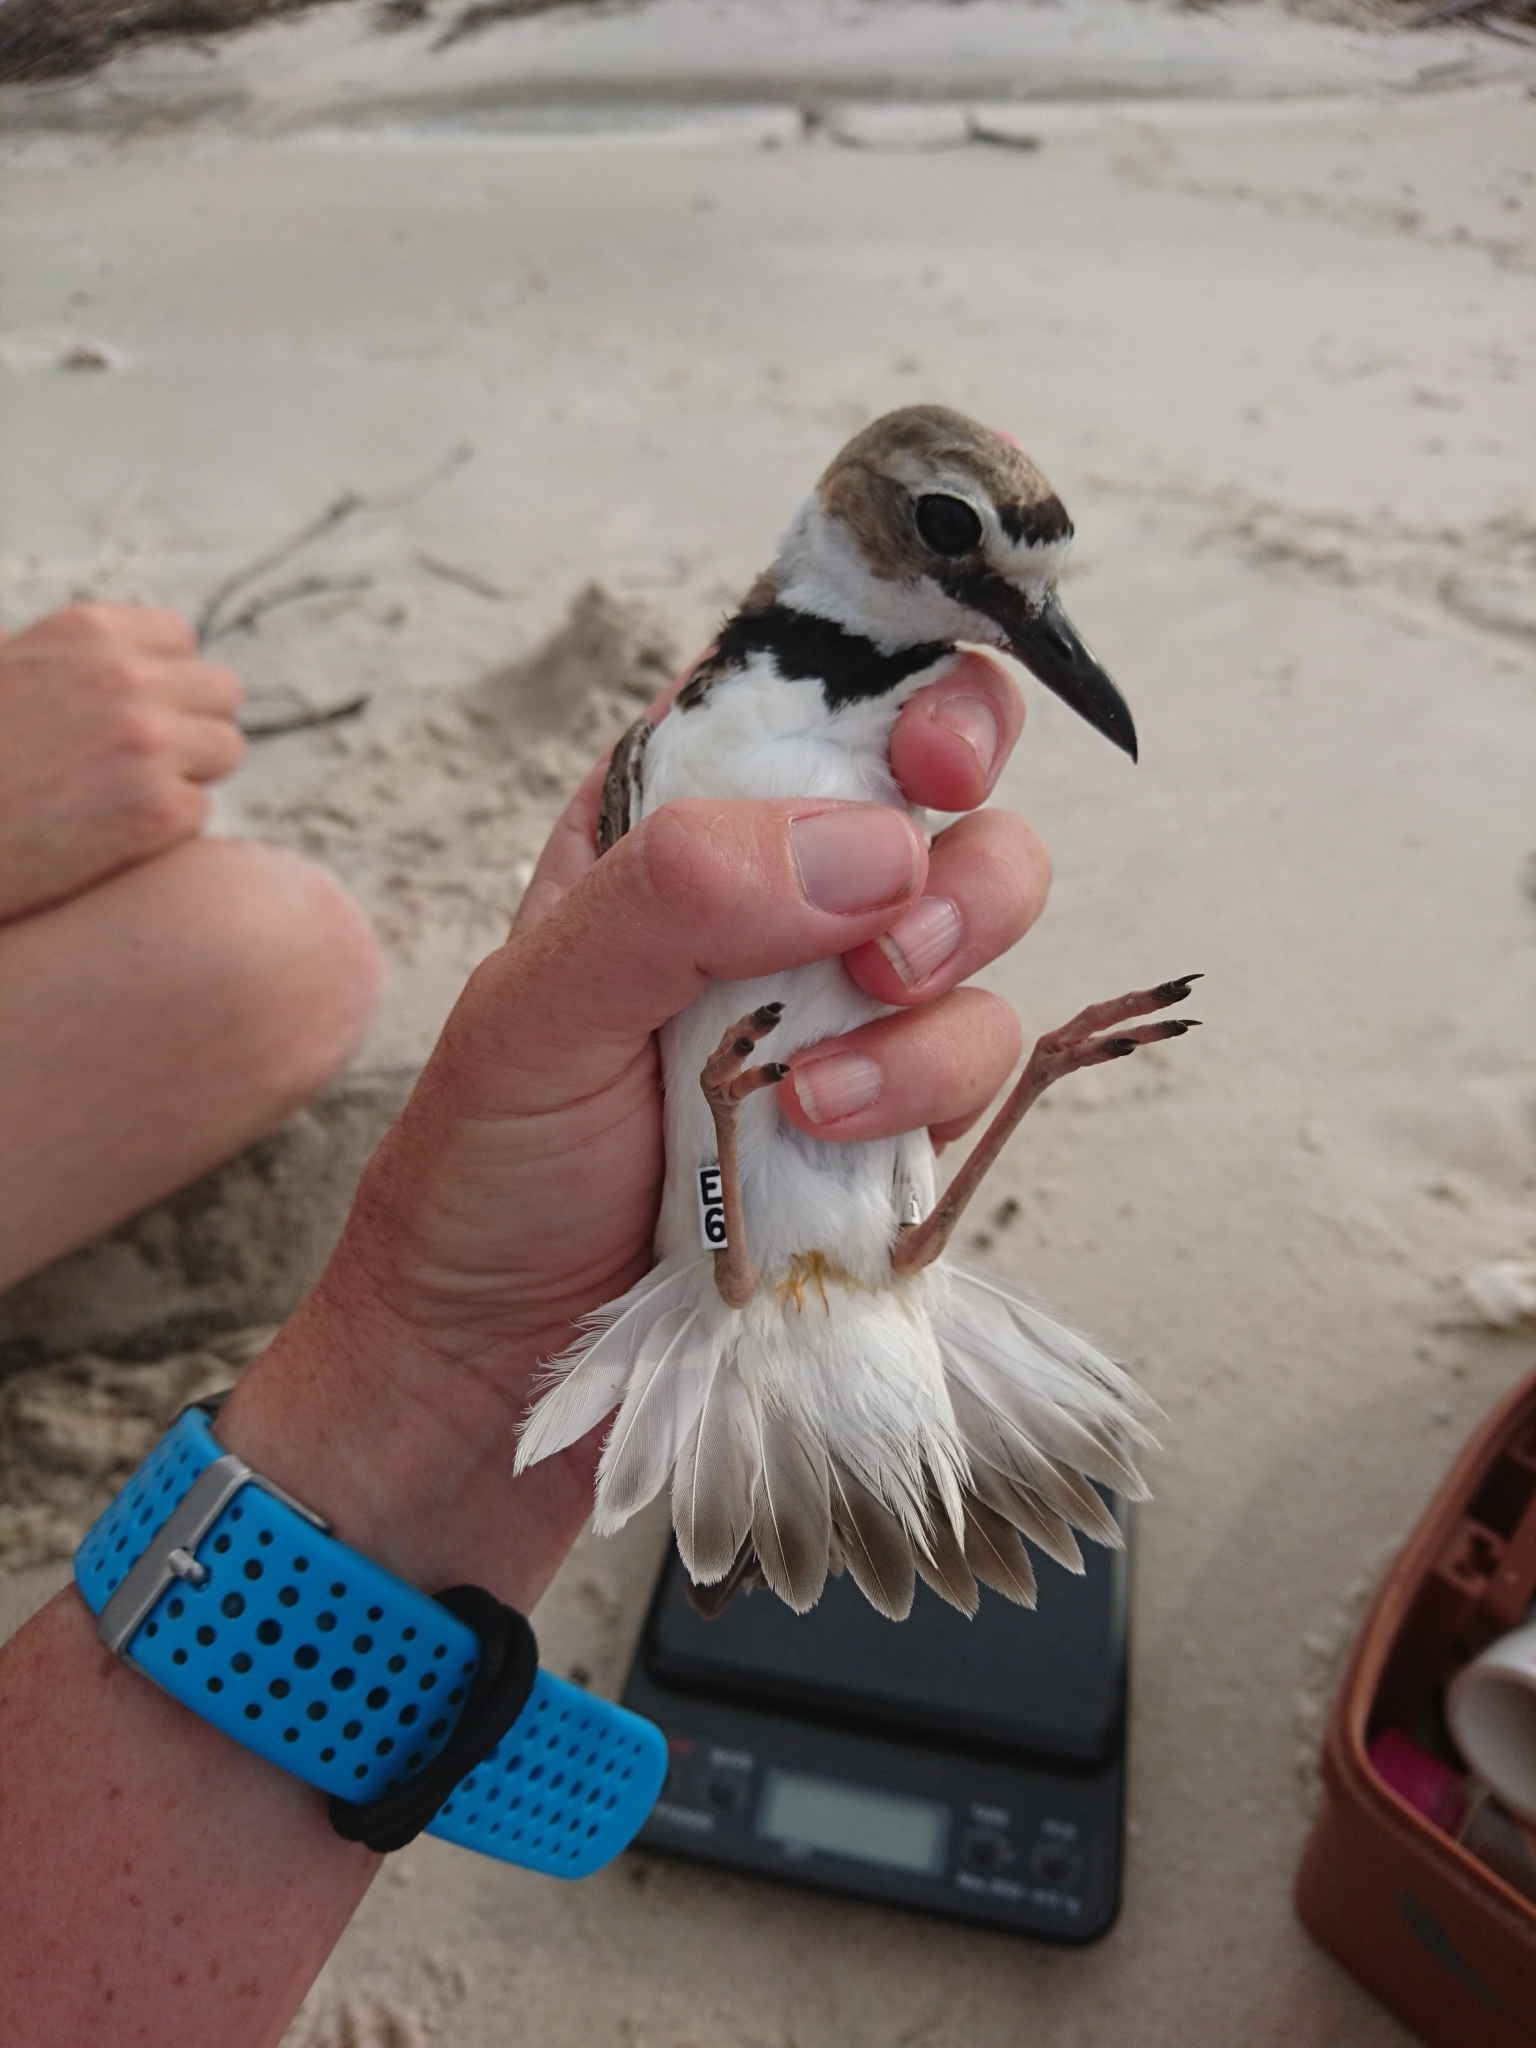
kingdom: Animalia
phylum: Chordata
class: Aves
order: Charadriiformes
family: Charadriidae
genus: Anarhynchus
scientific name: Anarhynchus
